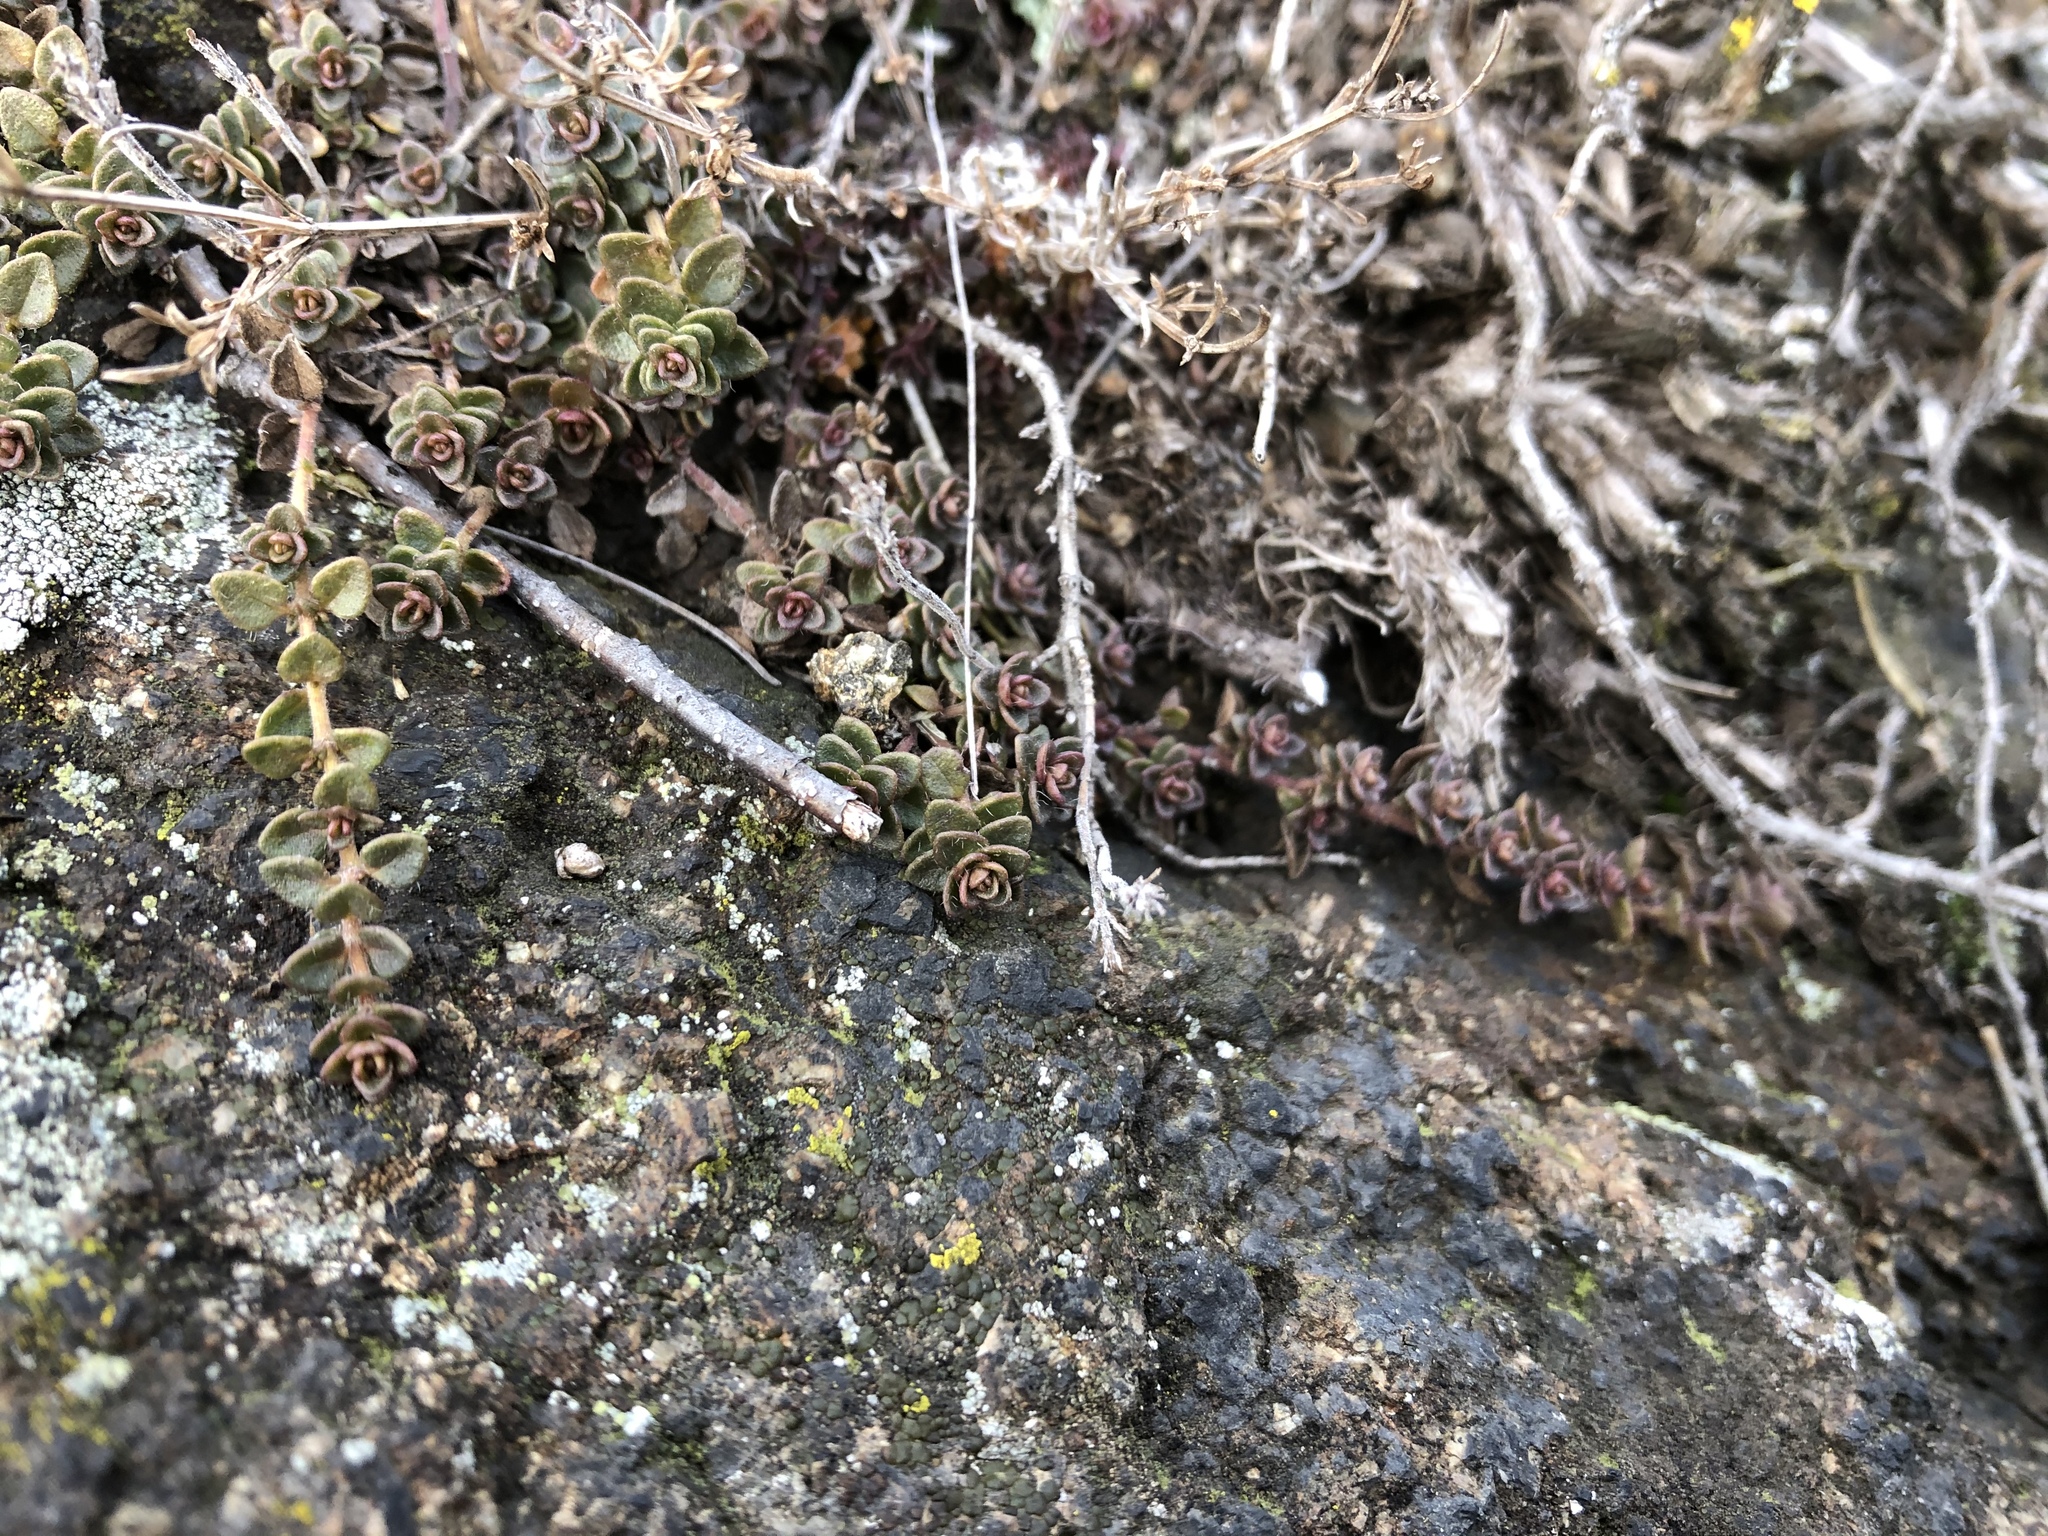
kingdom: Plantae
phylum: Tracheophyta
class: Magnoliopsida
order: Lamiales
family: Lamiaceae
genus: Thymus
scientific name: Thymus praecox
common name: Wild thyme
